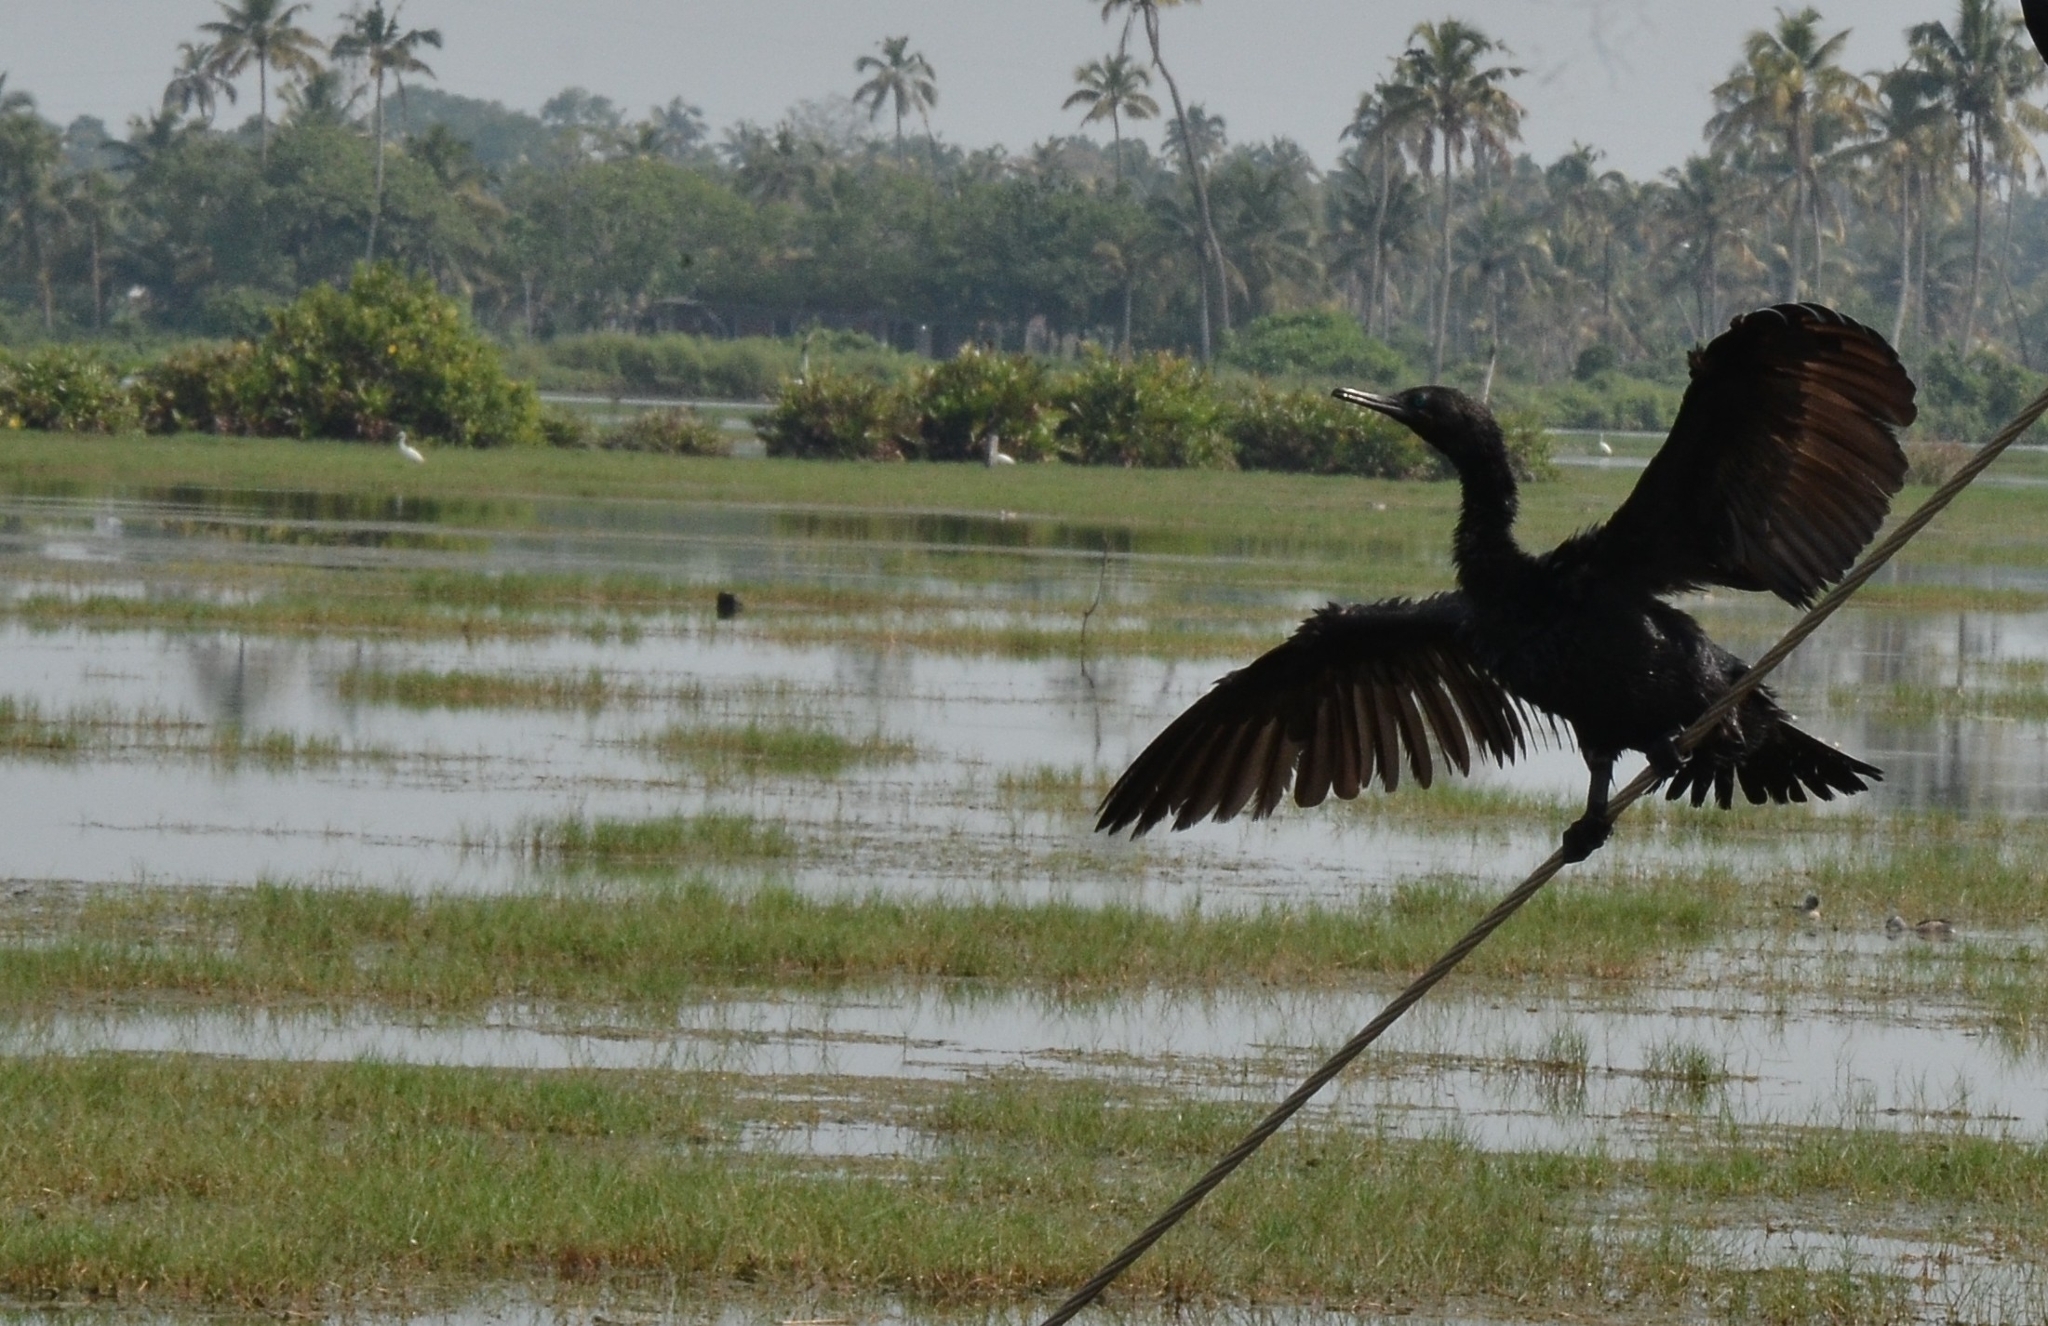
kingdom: Animalia
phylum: Chordata
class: Aves
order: Suliformes
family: Phalacrocoracidae
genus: Phalacrocorax
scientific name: Phalacrocorax fuscicollis
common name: Indian cormorant
